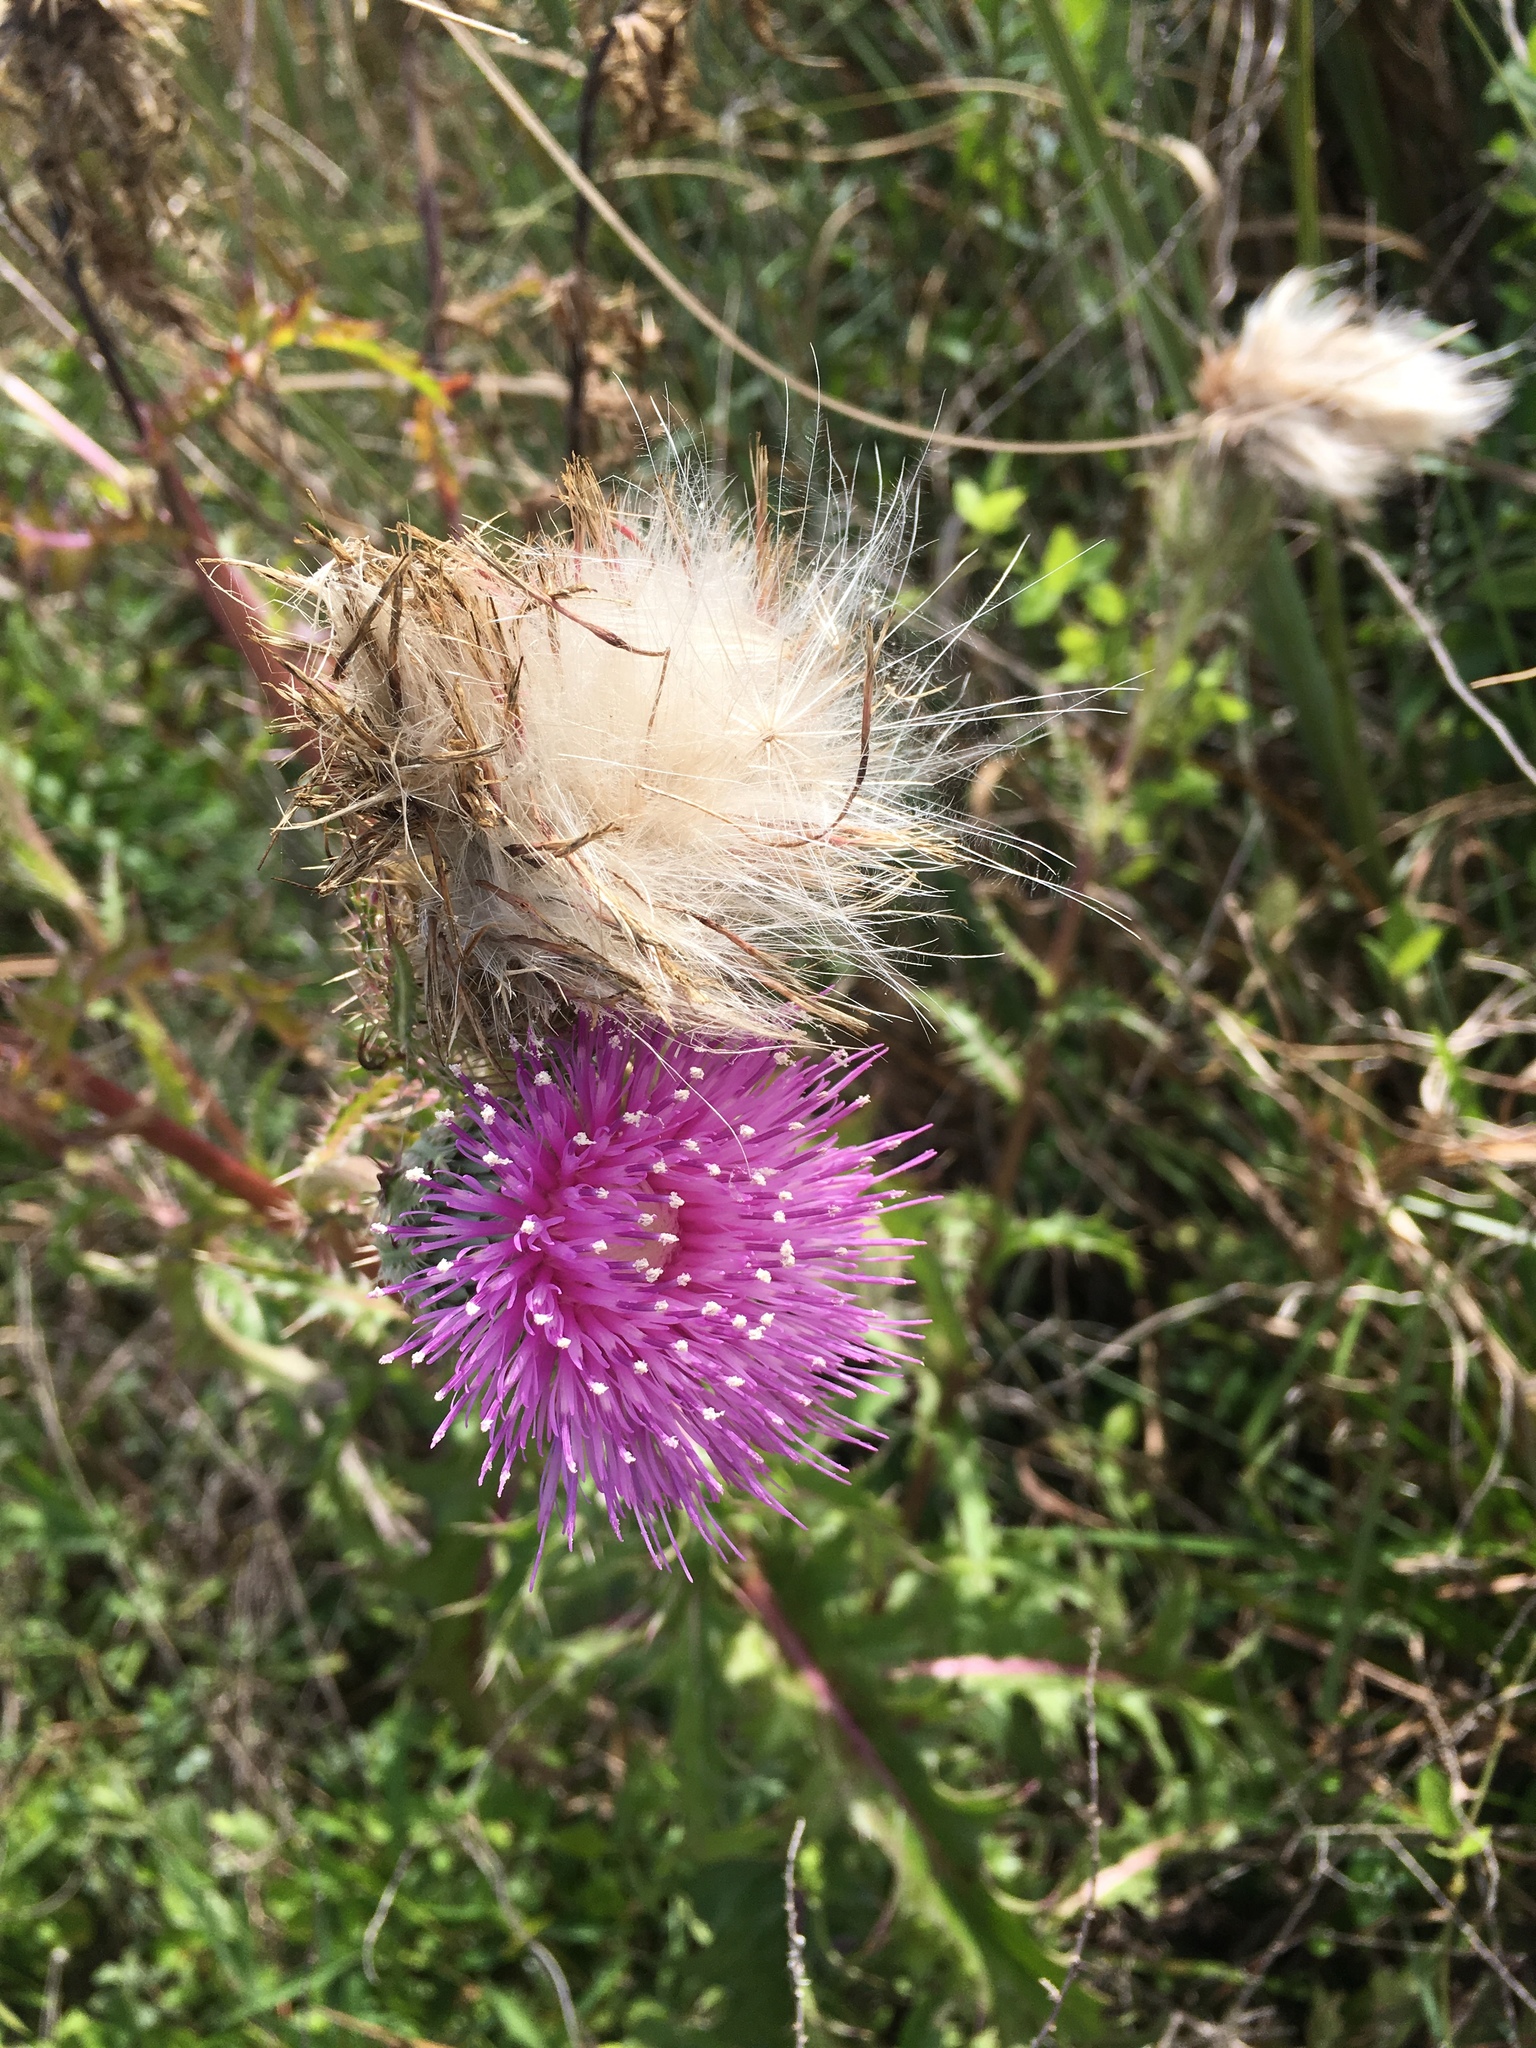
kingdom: Plantae
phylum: Tracheophyta
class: Magnoliopsida
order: Asterales
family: Asteraceae
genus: Cirsium
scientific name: Cirsium horridulum
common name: Bristly thistle
